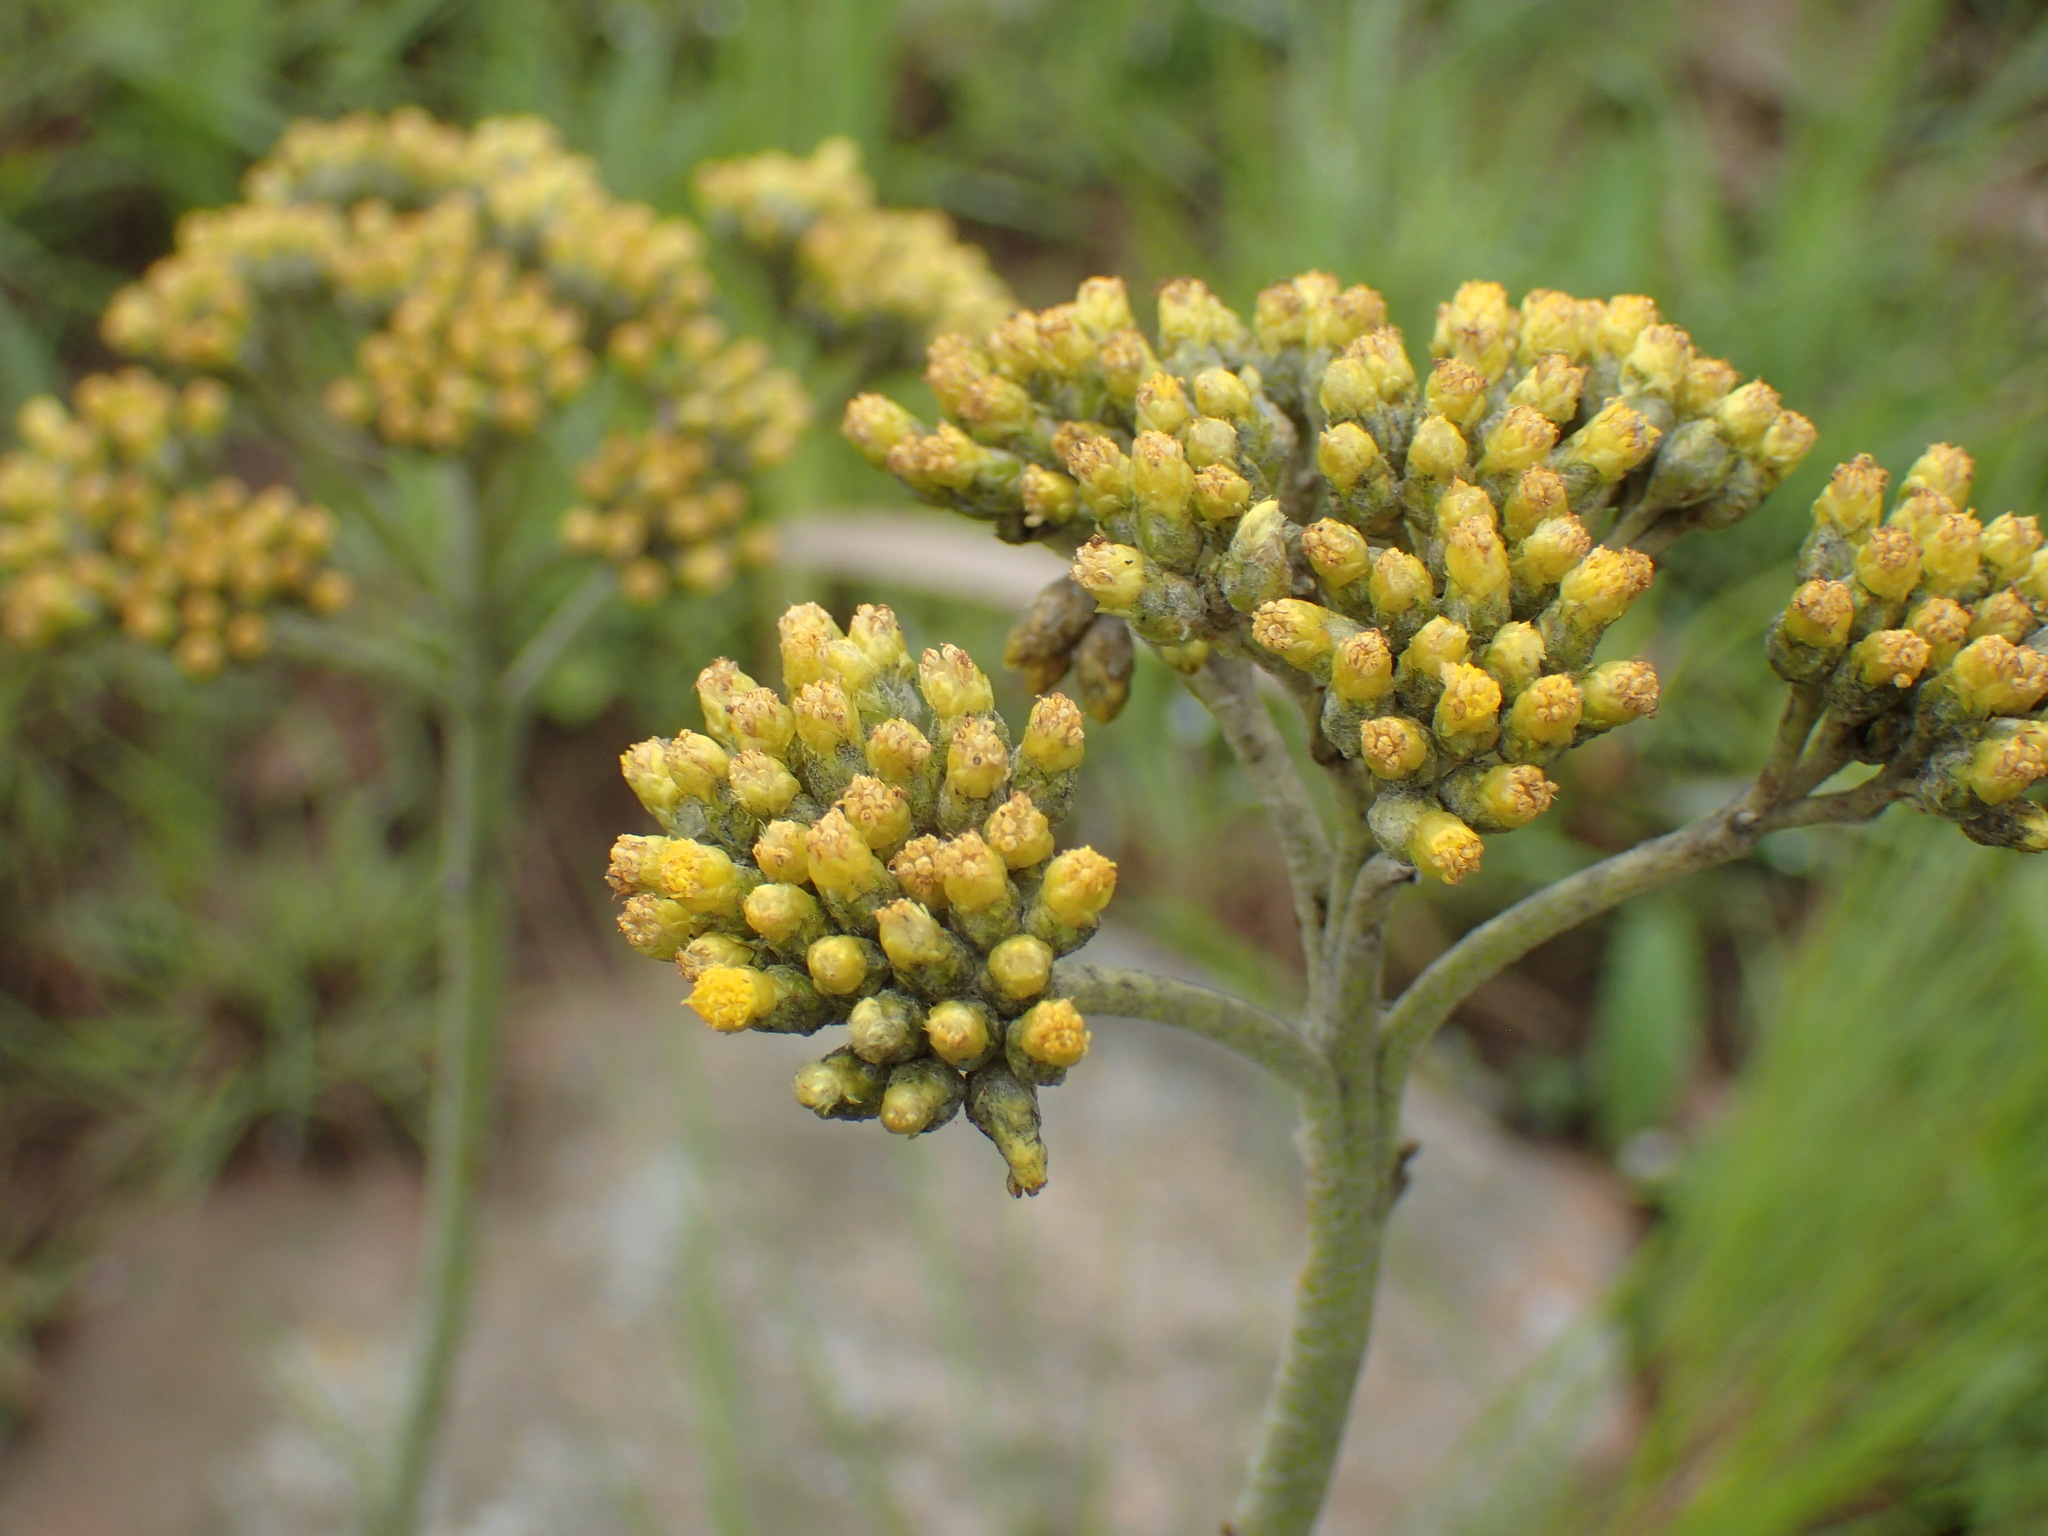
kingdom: Plantae
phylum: Tracheophyta
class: Magnoliopsida
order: Asterales
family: Asteraceae
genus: Helichrysum
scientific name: Helichrysum acutatum
